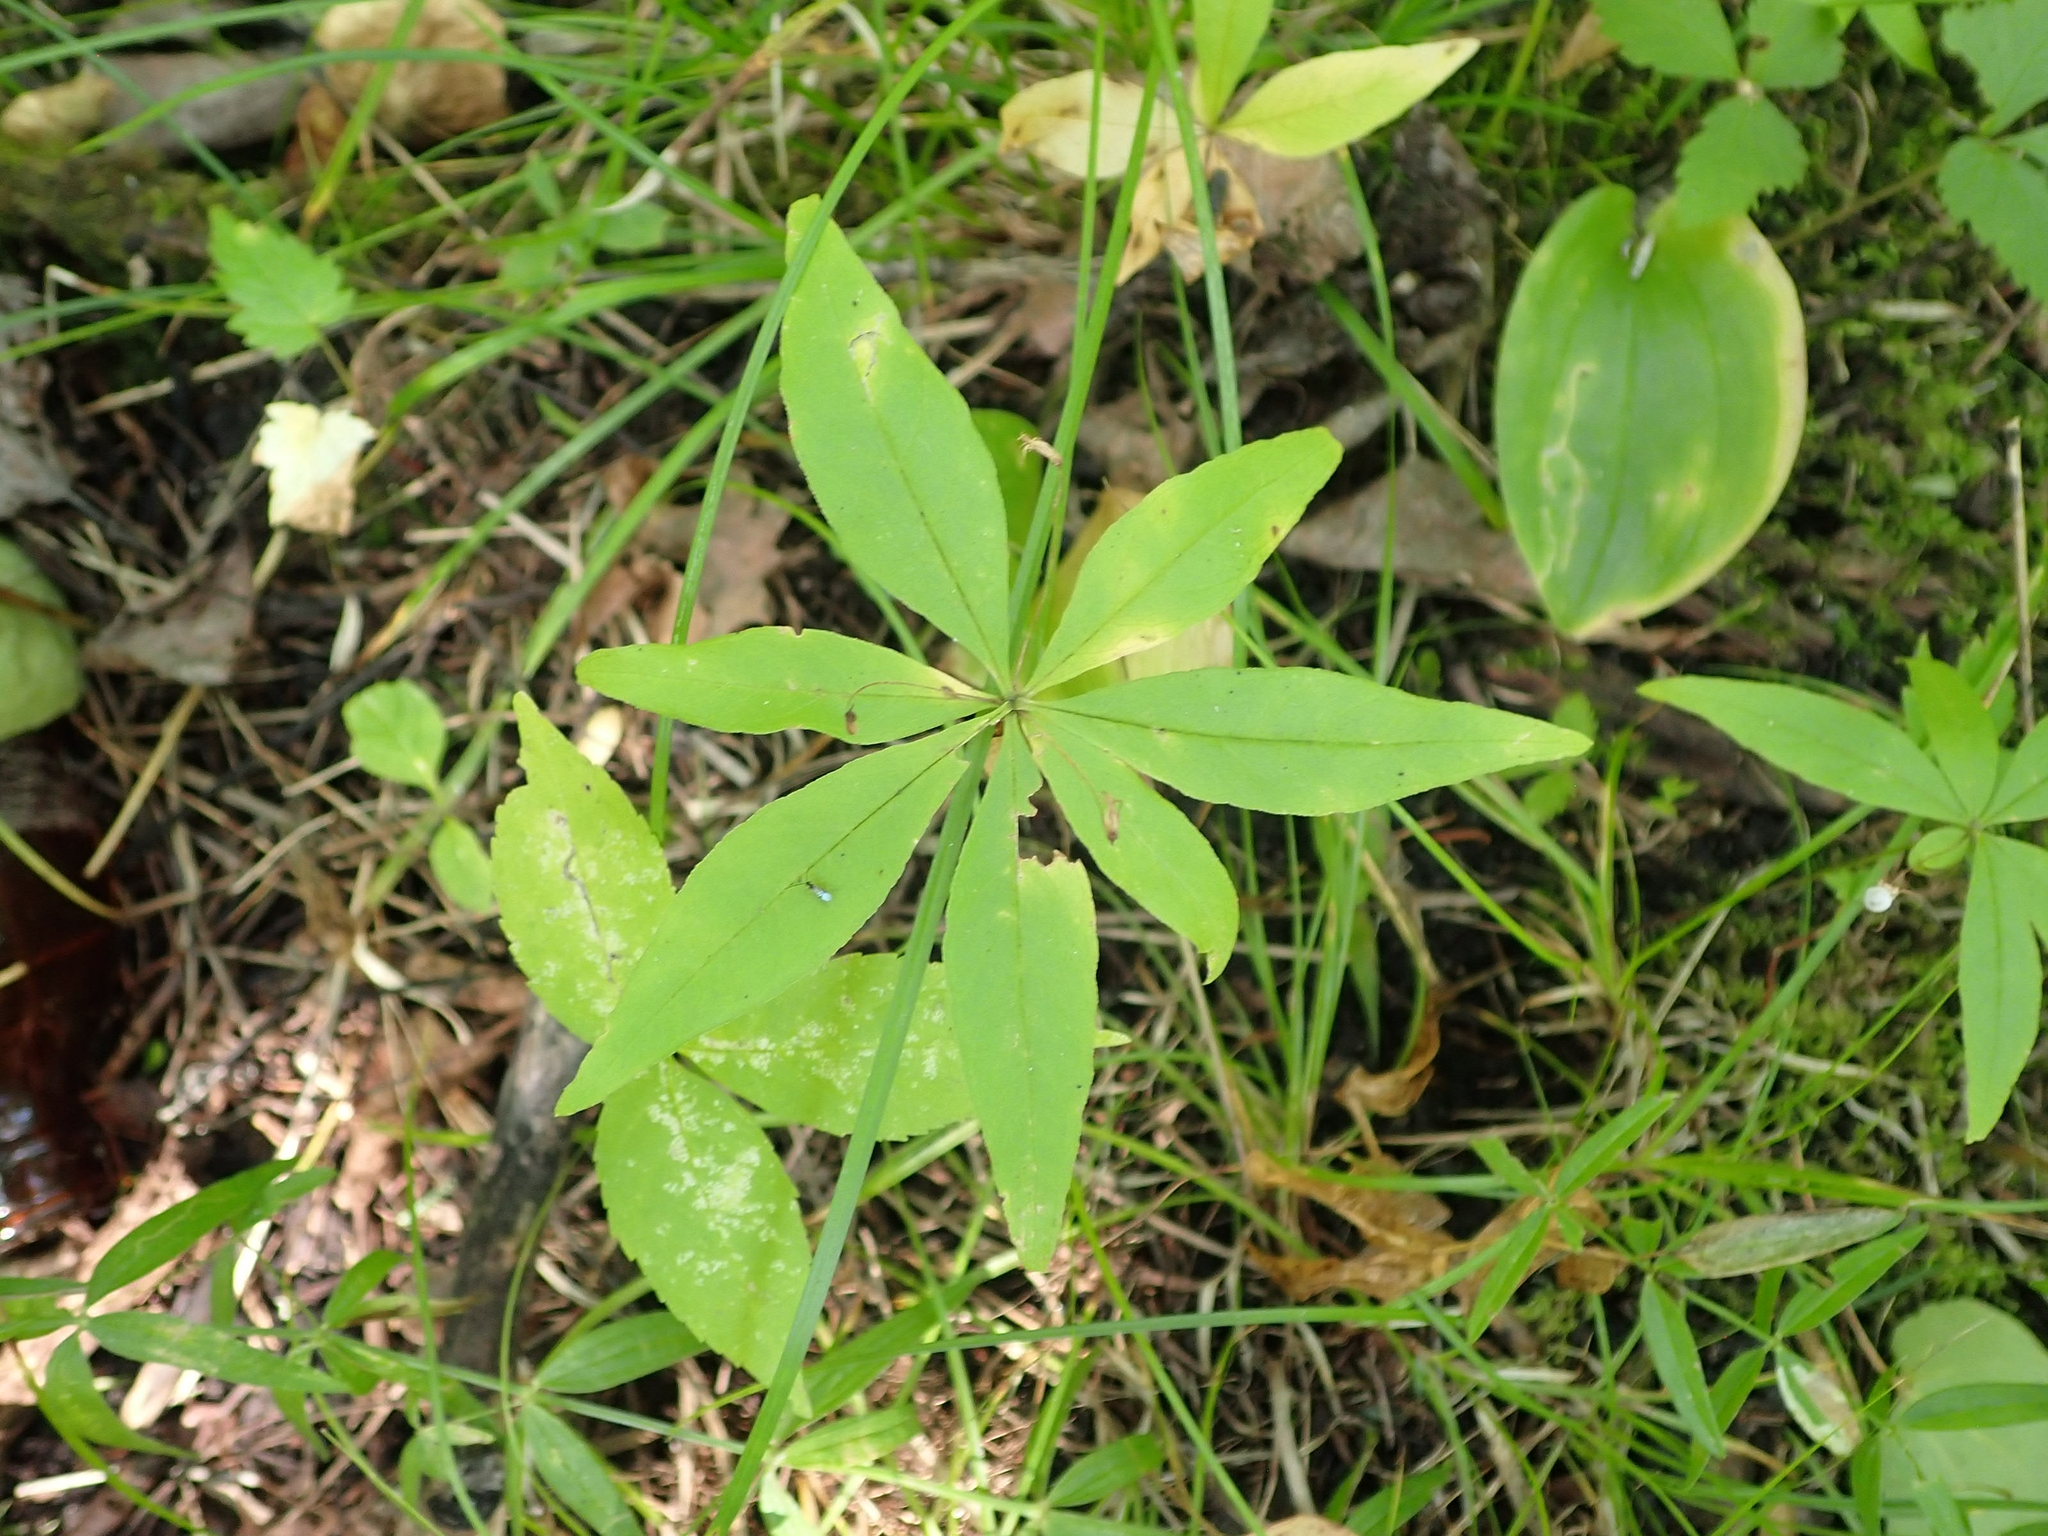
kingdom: Plantae
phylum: Tracheophyta
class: Magnoliopsida
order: Ericales
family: Primulaceae
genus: Lysimachia
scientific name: Lysimachia borealis
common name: American starflower
